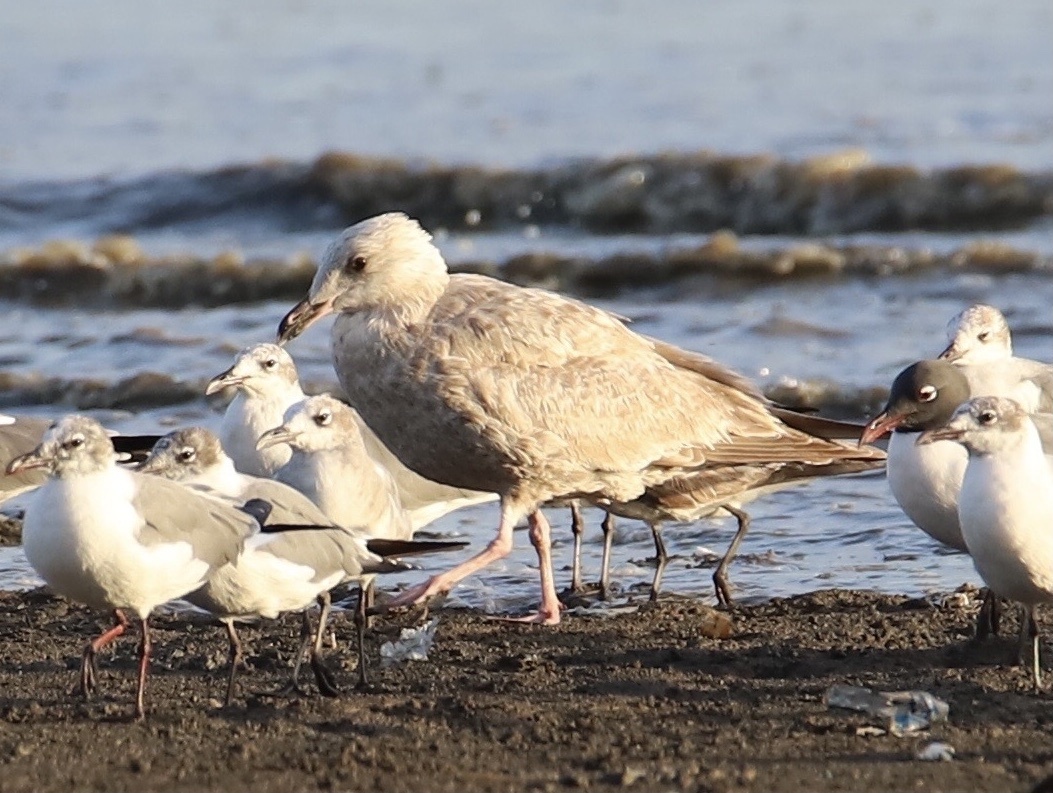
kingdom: Animalia
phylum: Chordata
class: Aves
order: Charadriiformes
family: Laridae
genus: Larus
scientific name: Larus argentatus
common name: Herring gull
